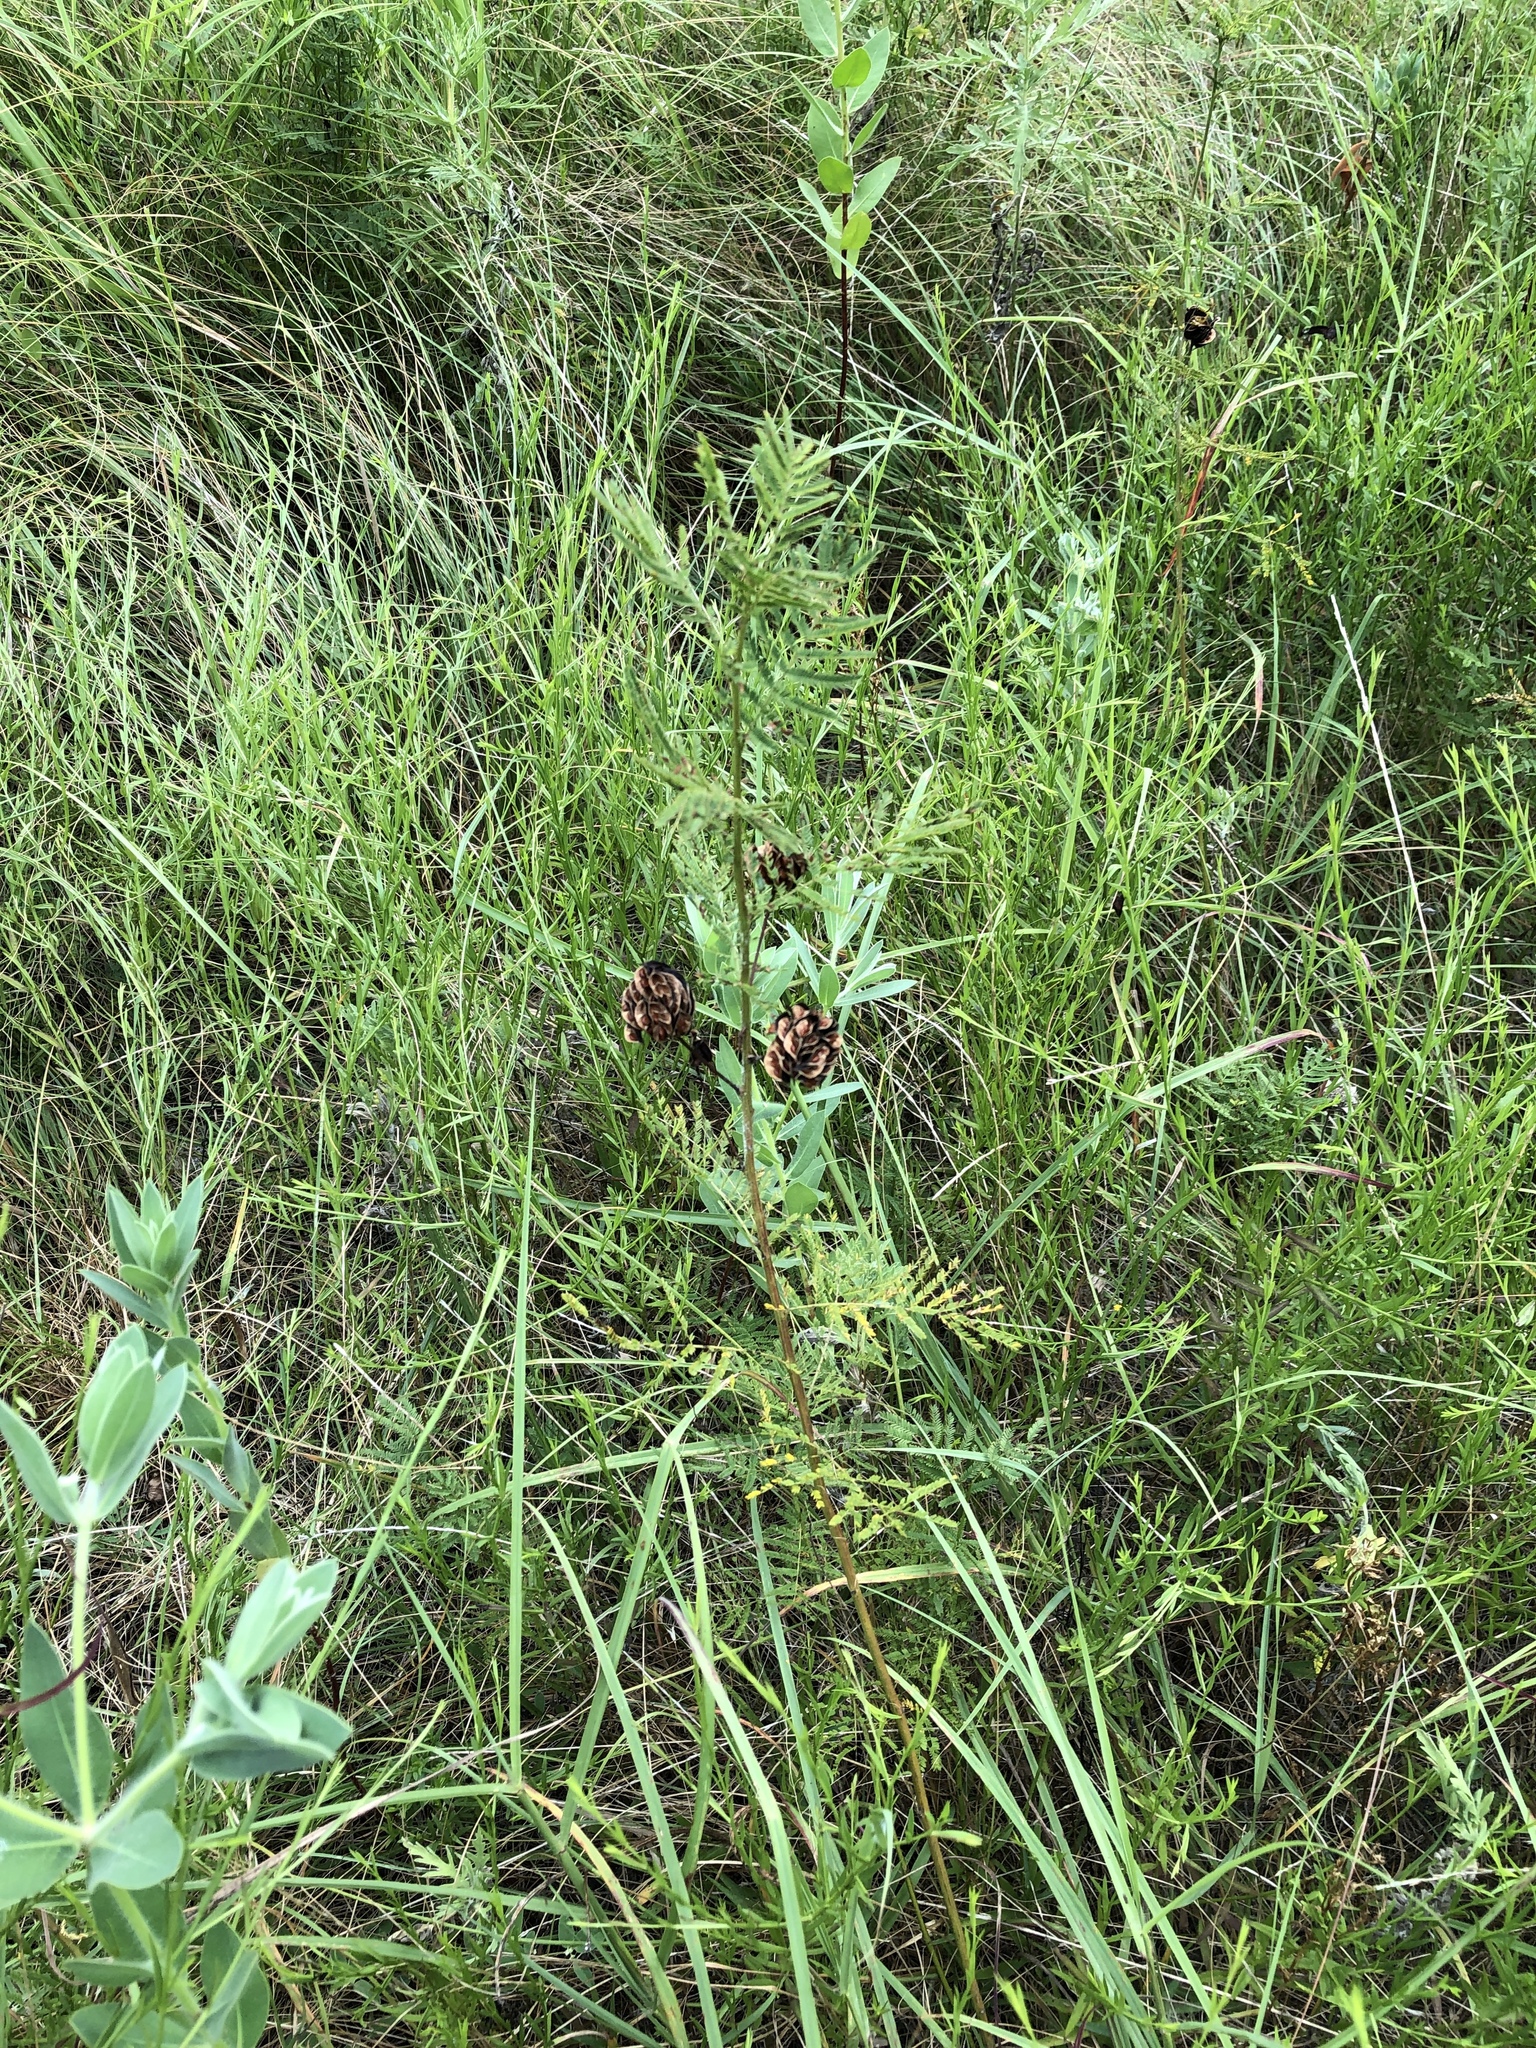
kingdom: Plantae
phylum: Tracheophyta
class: Magnoliopsida
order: Fabales
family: Fabaceae
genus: Desmanthus
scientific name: Desmanthus illinoensis
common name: Illinois bundle-flower
